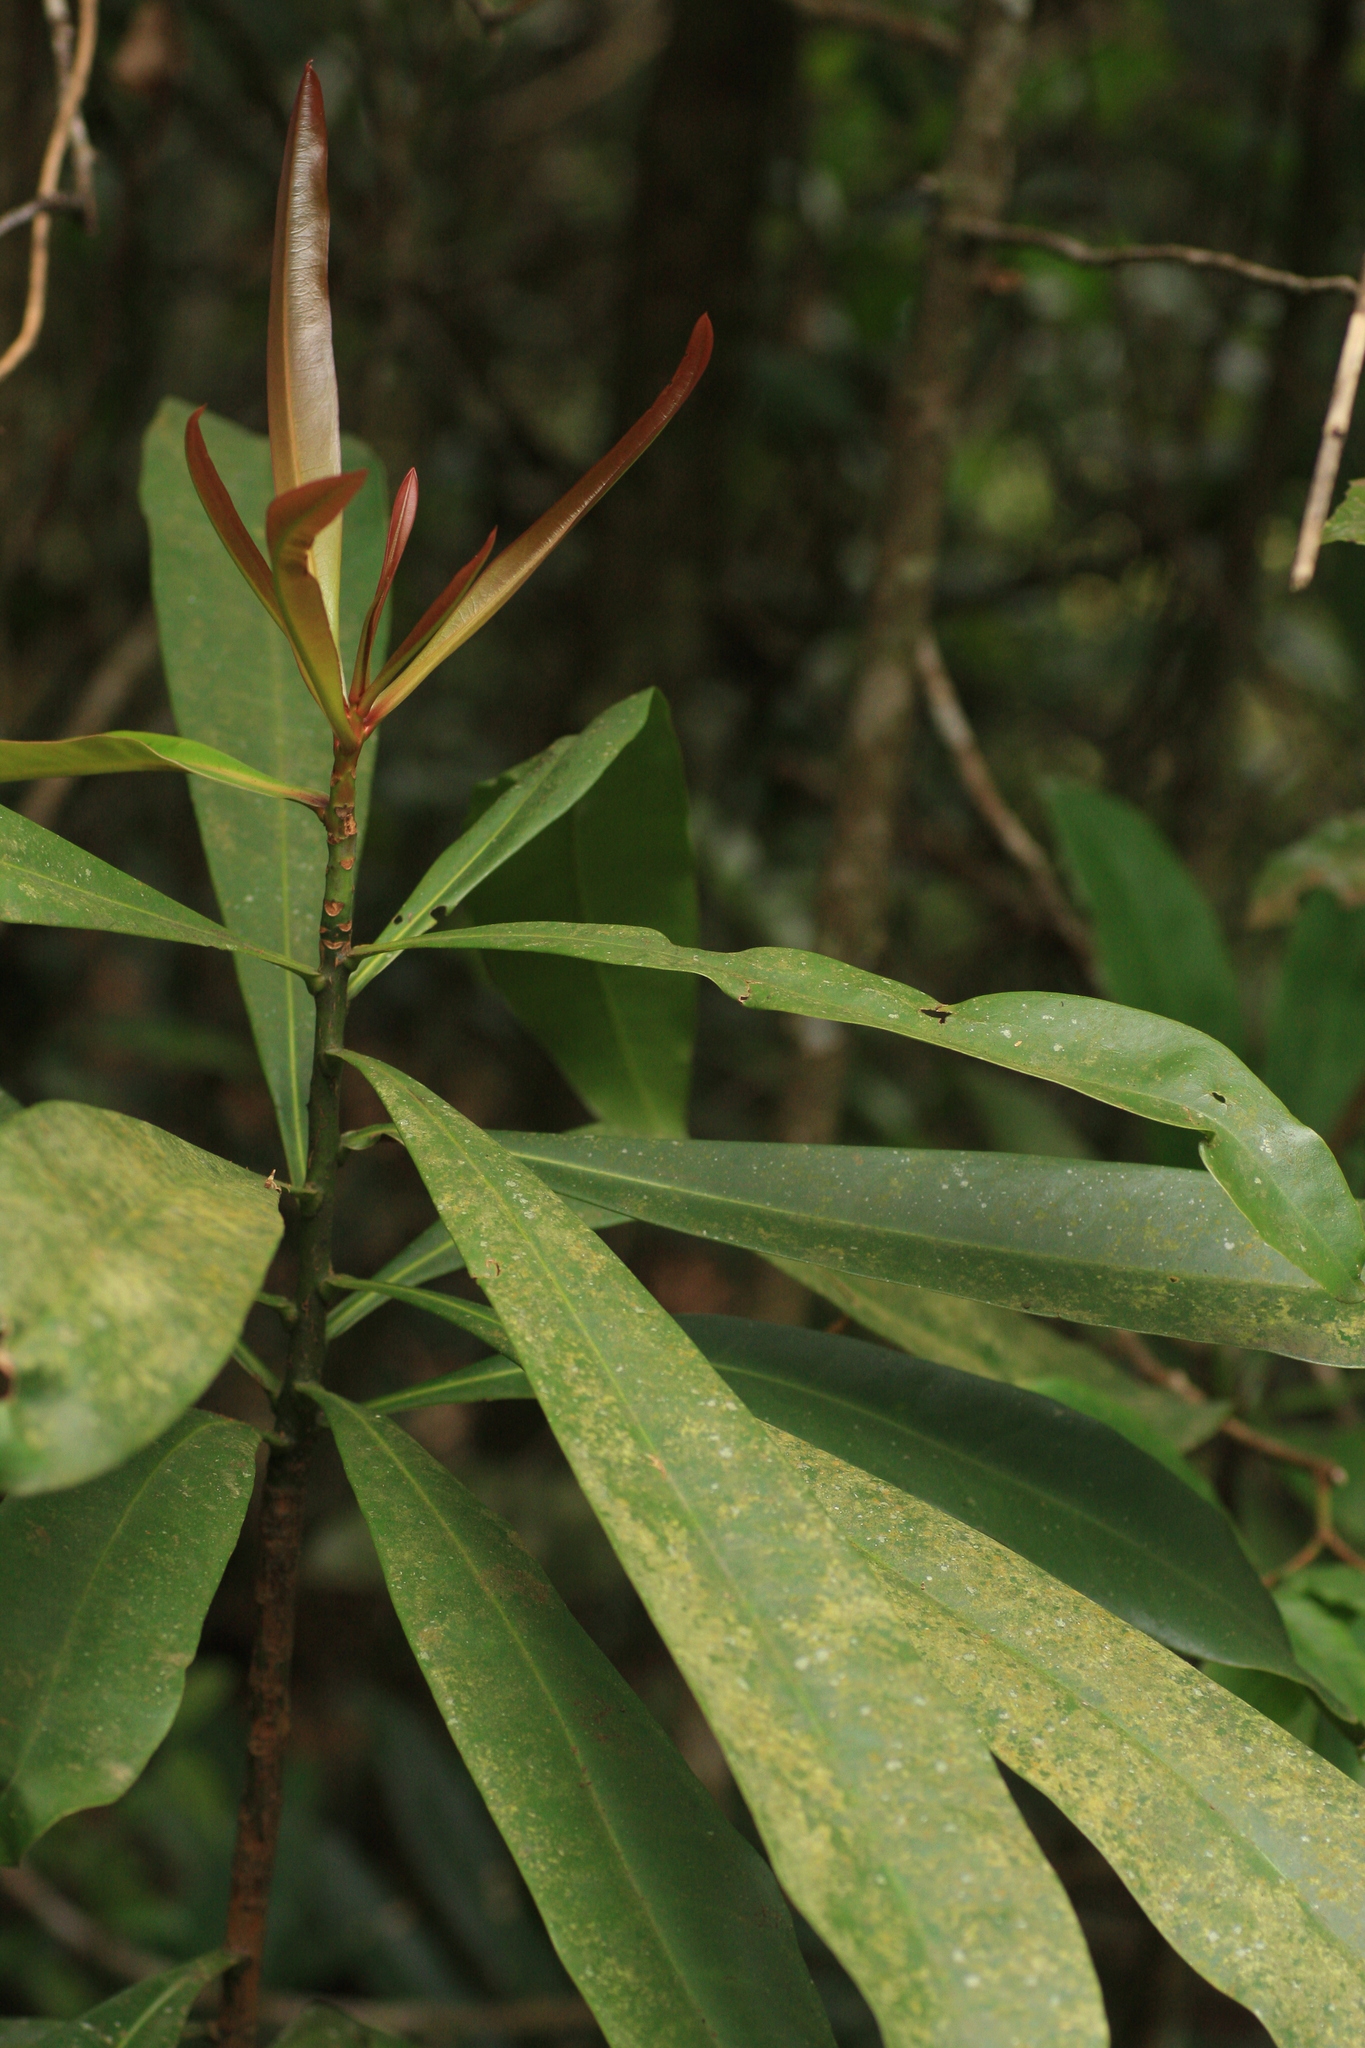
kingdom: Plantae
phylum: Tracheophyta
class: Magnoliopsida
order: Caryophyllales
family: Ancistrocladaceae
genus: Ancistrocladus
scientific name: Ancistrocladus heyneanus
